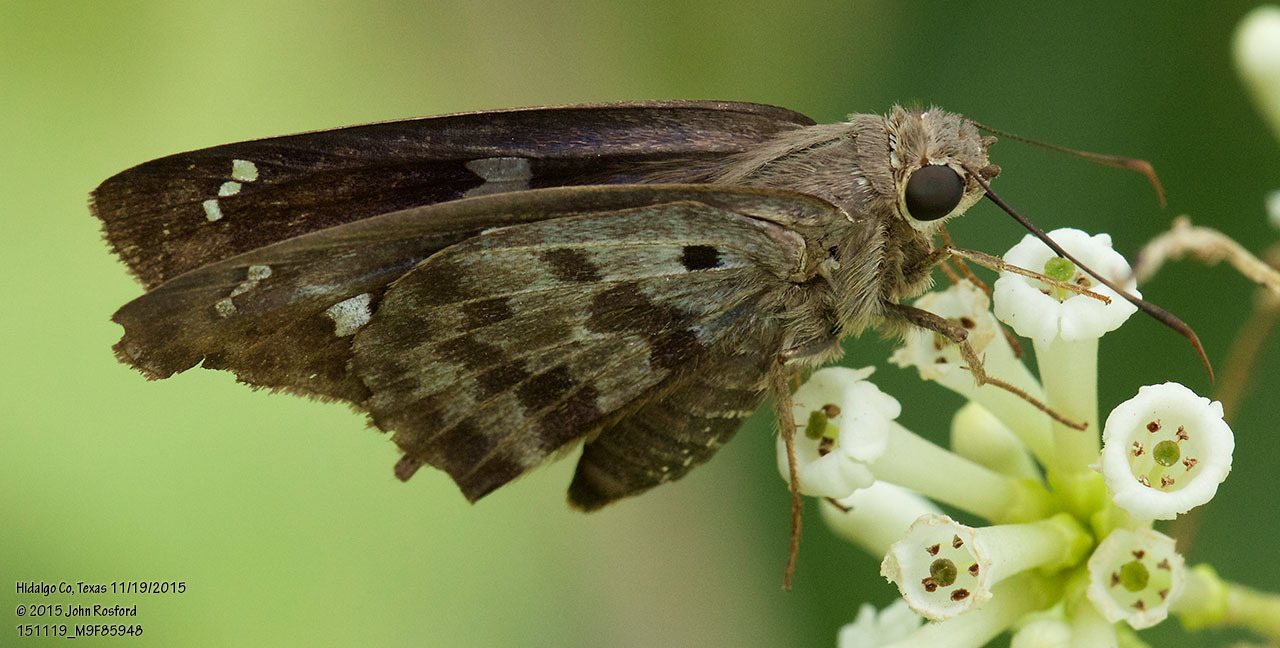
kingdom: Animalia
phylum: Arthropoda
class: Insecta
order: Lepidoptera
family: Hesperiidae
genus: Polygonus
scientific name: Polygonus leo
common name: Hammoch skipper
